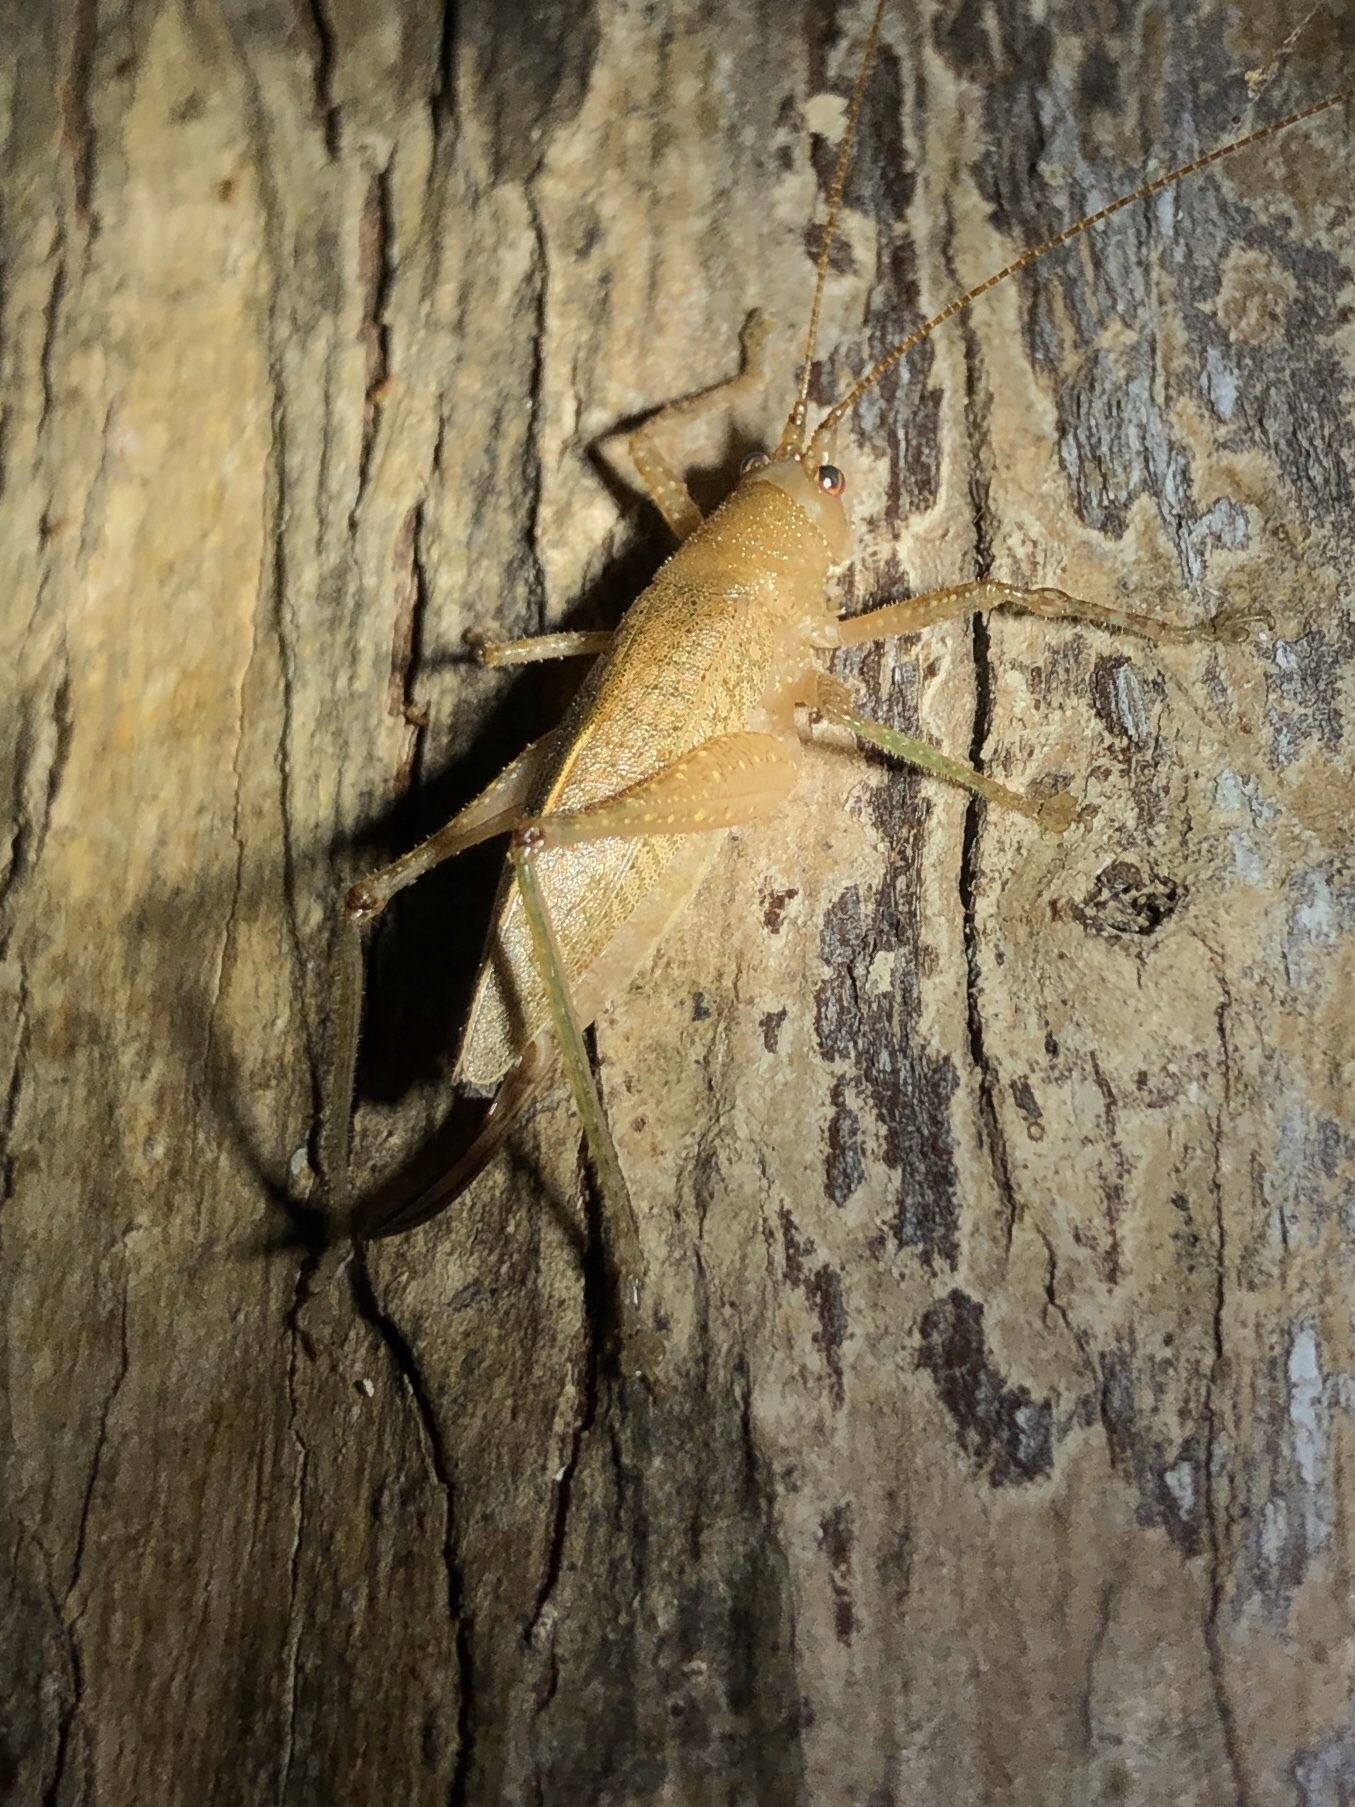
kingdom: Animalia
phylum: Arthropoda
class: Insecta
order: Orthoptera
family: Tettigoniidae
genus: Thamnobates
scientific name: Thamnobates subfalcata
